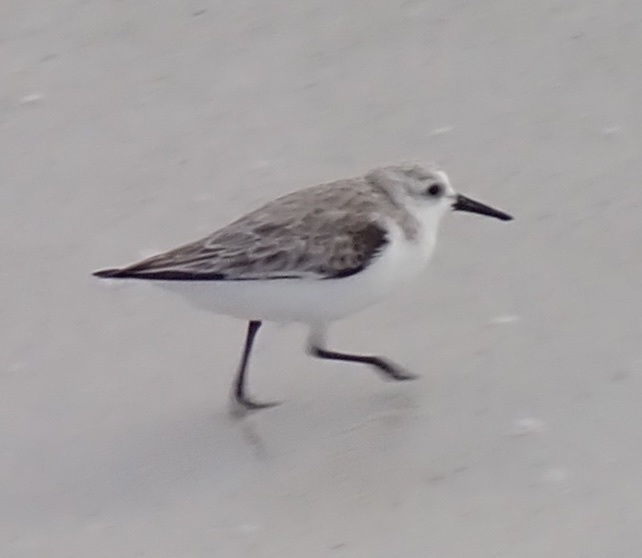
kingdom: Animalia
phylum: Chordata
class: Aves
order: Charadriiformes
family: Scolopacidae
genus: Calidris
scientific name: Calidris alba
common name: Sanderling
